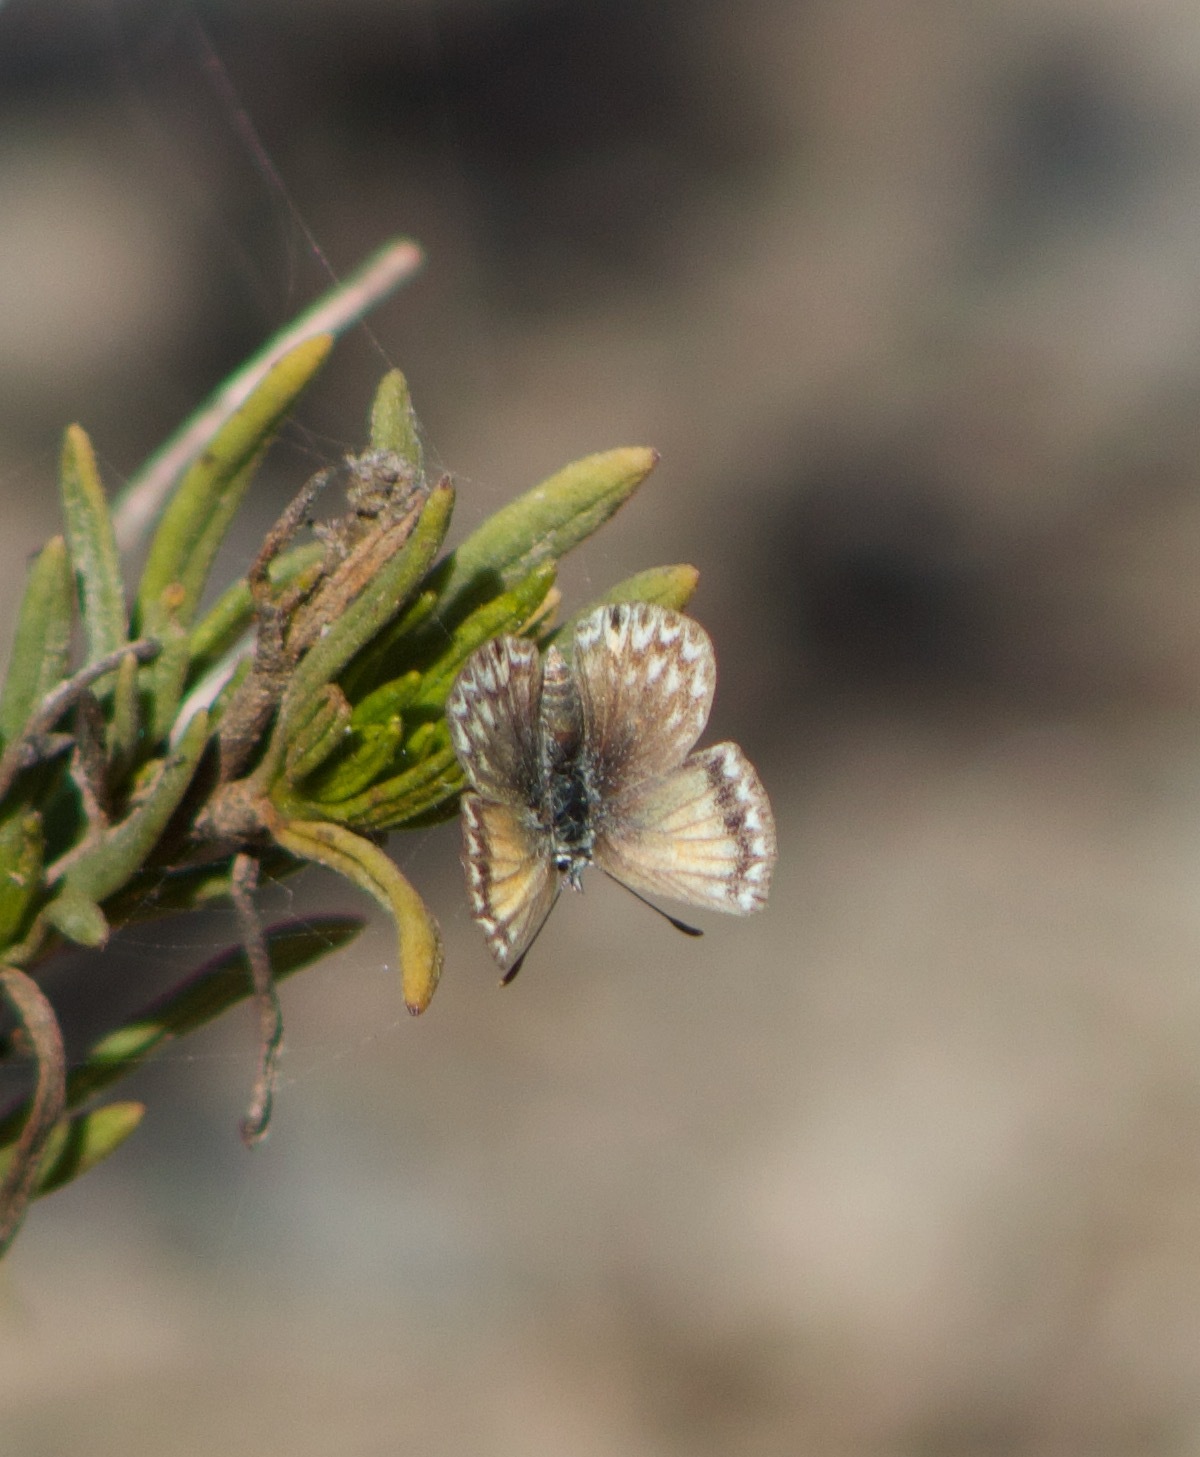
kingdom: Animalia
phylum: Arthropoda
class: Insecta
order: Lepidoptera
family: Lycaenidae
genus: Pseudolucia
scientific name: Pseudolucia chilensis
